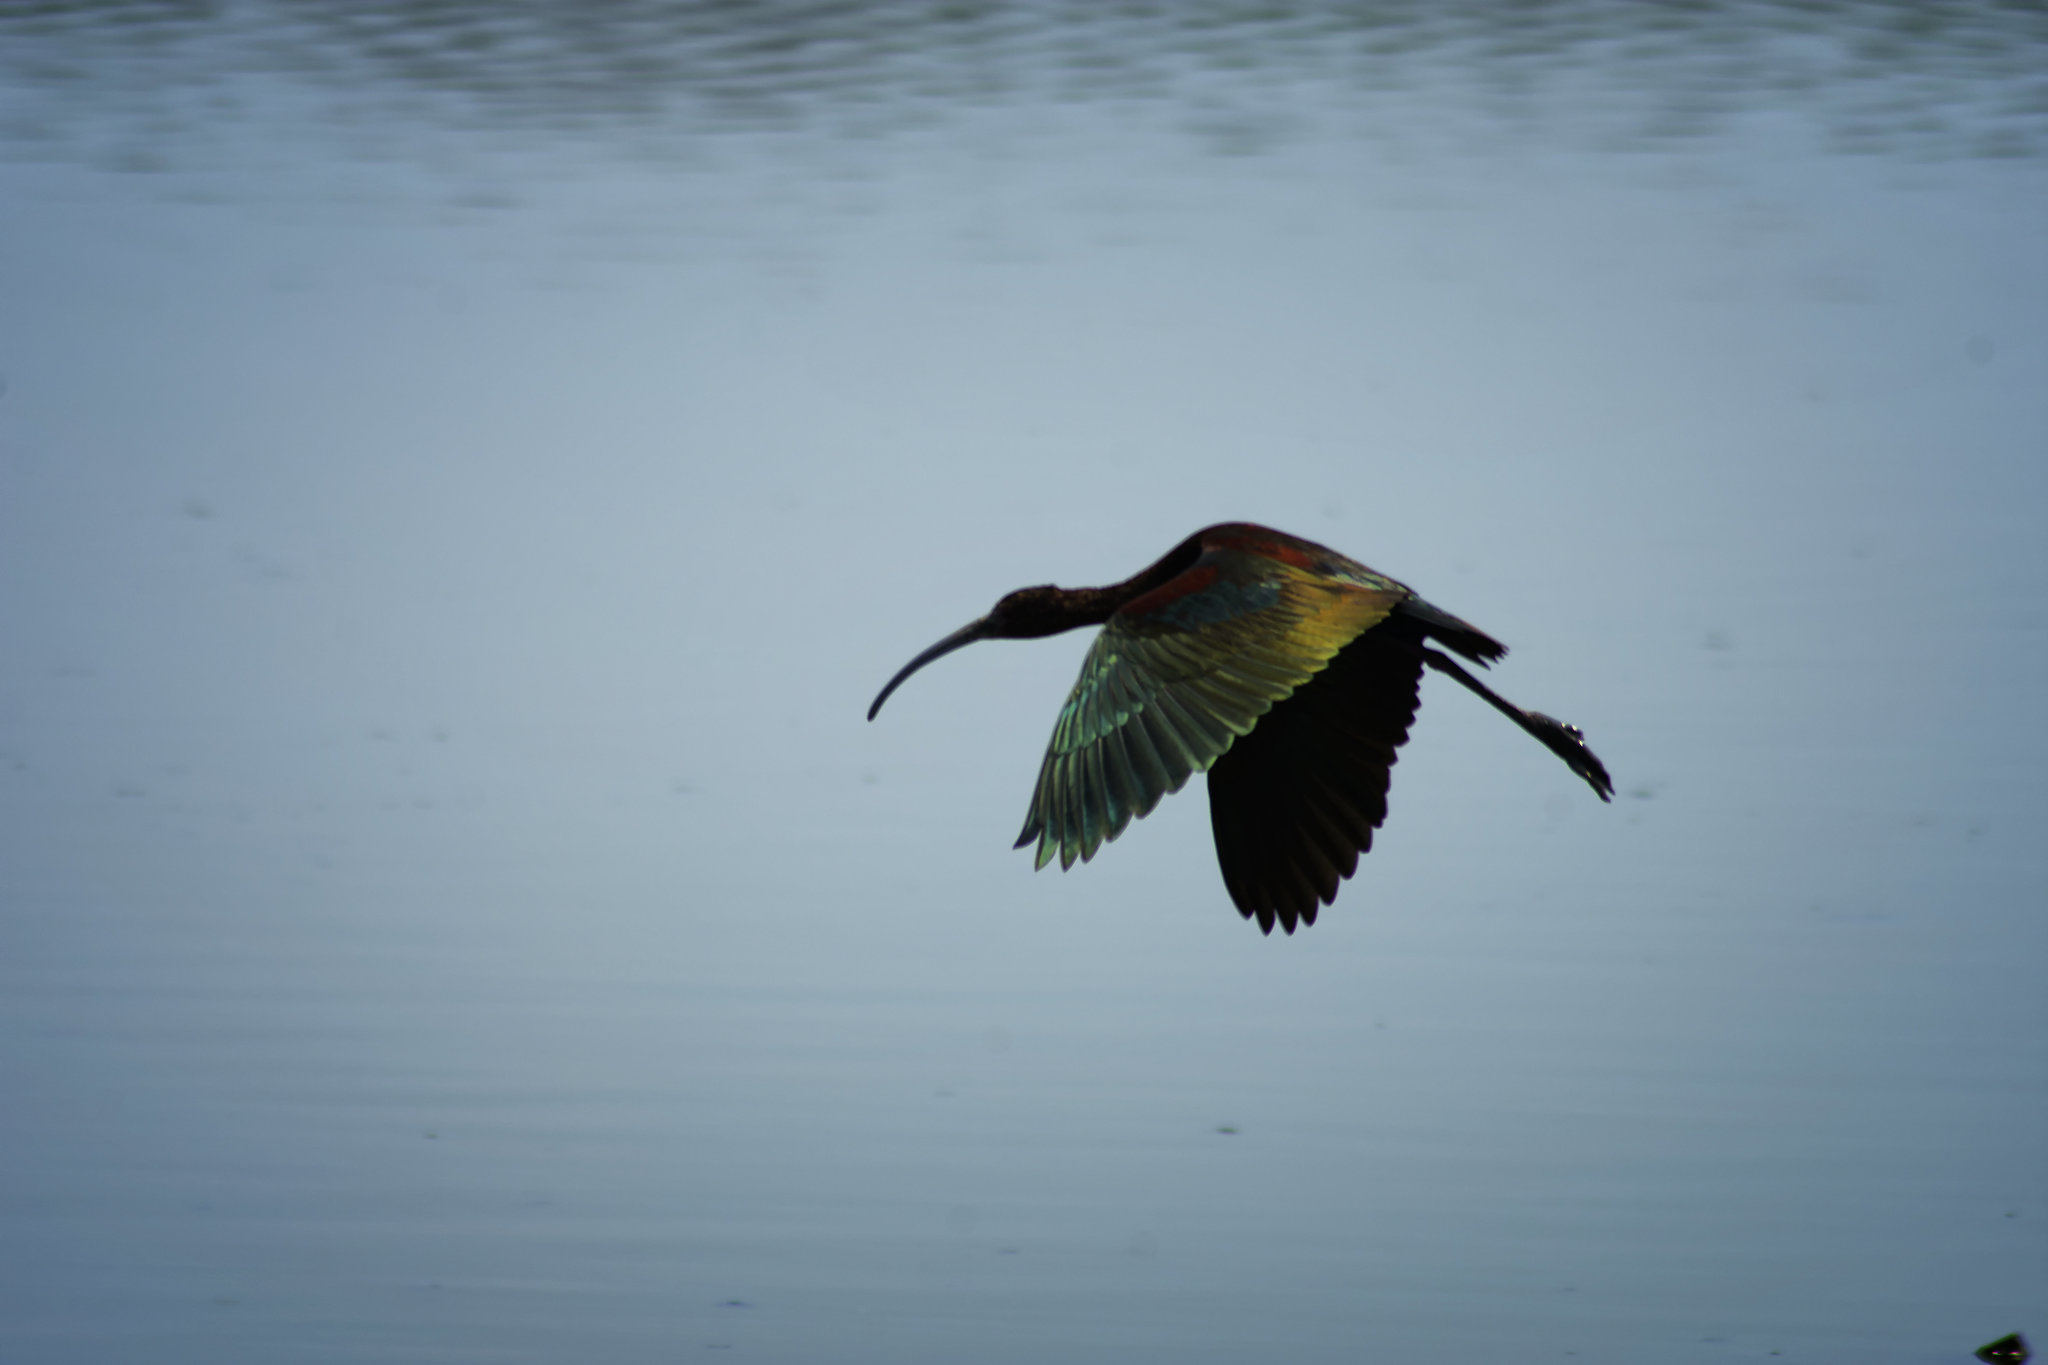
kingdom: Animalia
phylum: Chordata
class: Aves
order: Pelecaniformes
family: Threskiornithidae
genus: Plegadis
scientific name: Plegadis falcinellus
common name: Glossy ibis
